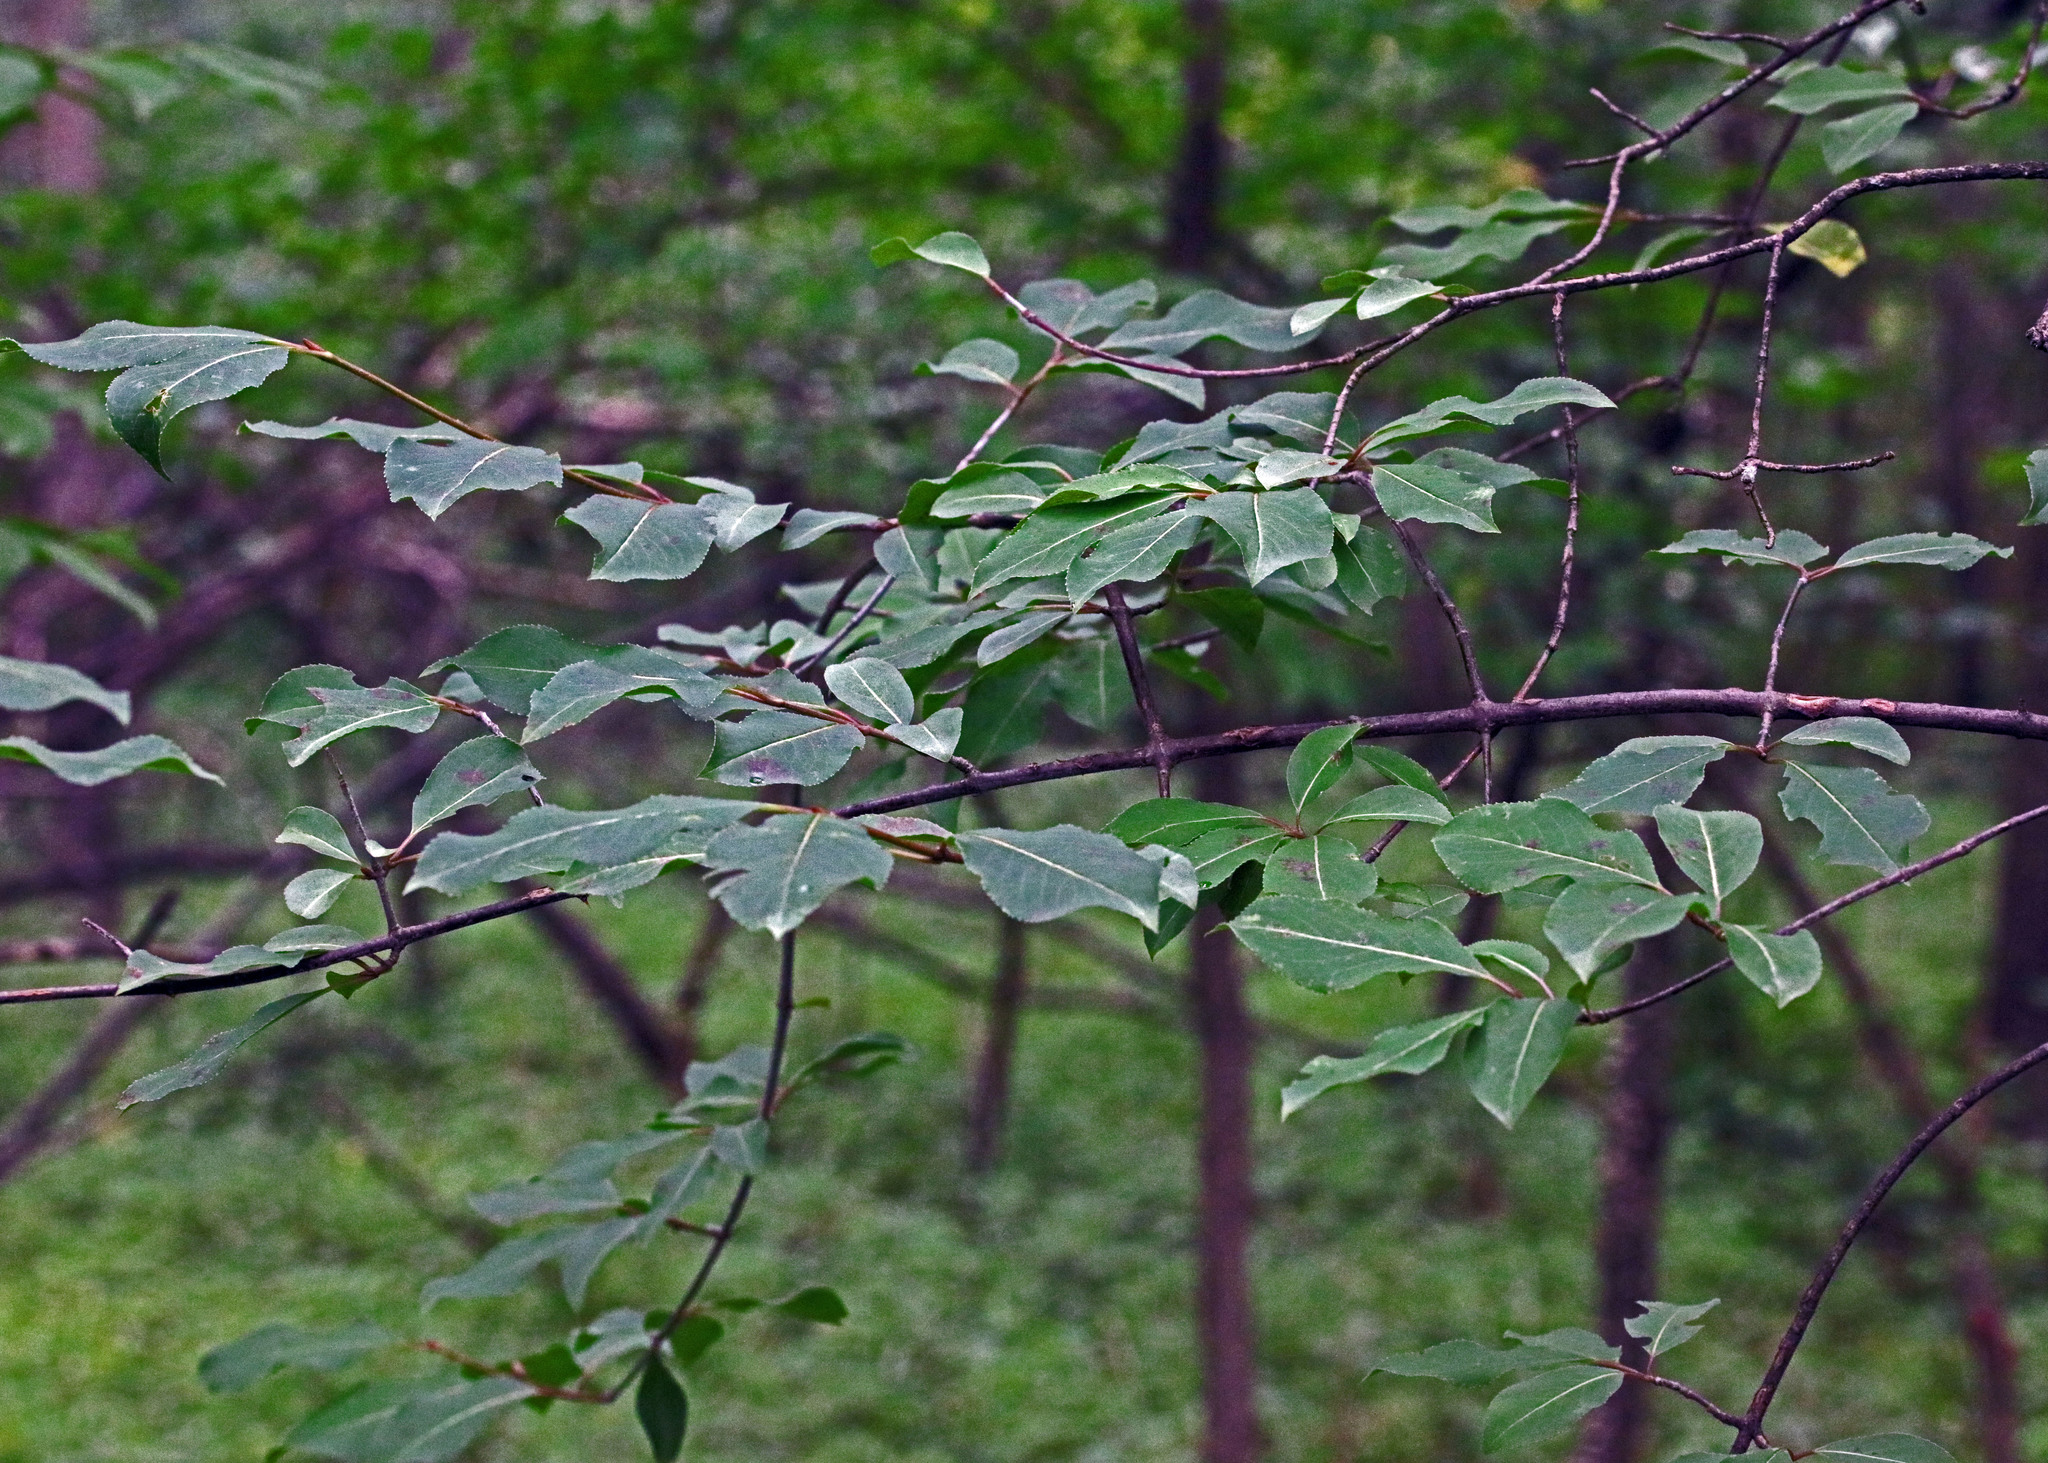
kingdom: Plantae
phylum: Tracheophyta
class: Magnoliopsida
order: Dipsacales
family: Viburnaceae
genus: Viburnum
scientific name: Viburnum prunifolium
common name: Black haw
